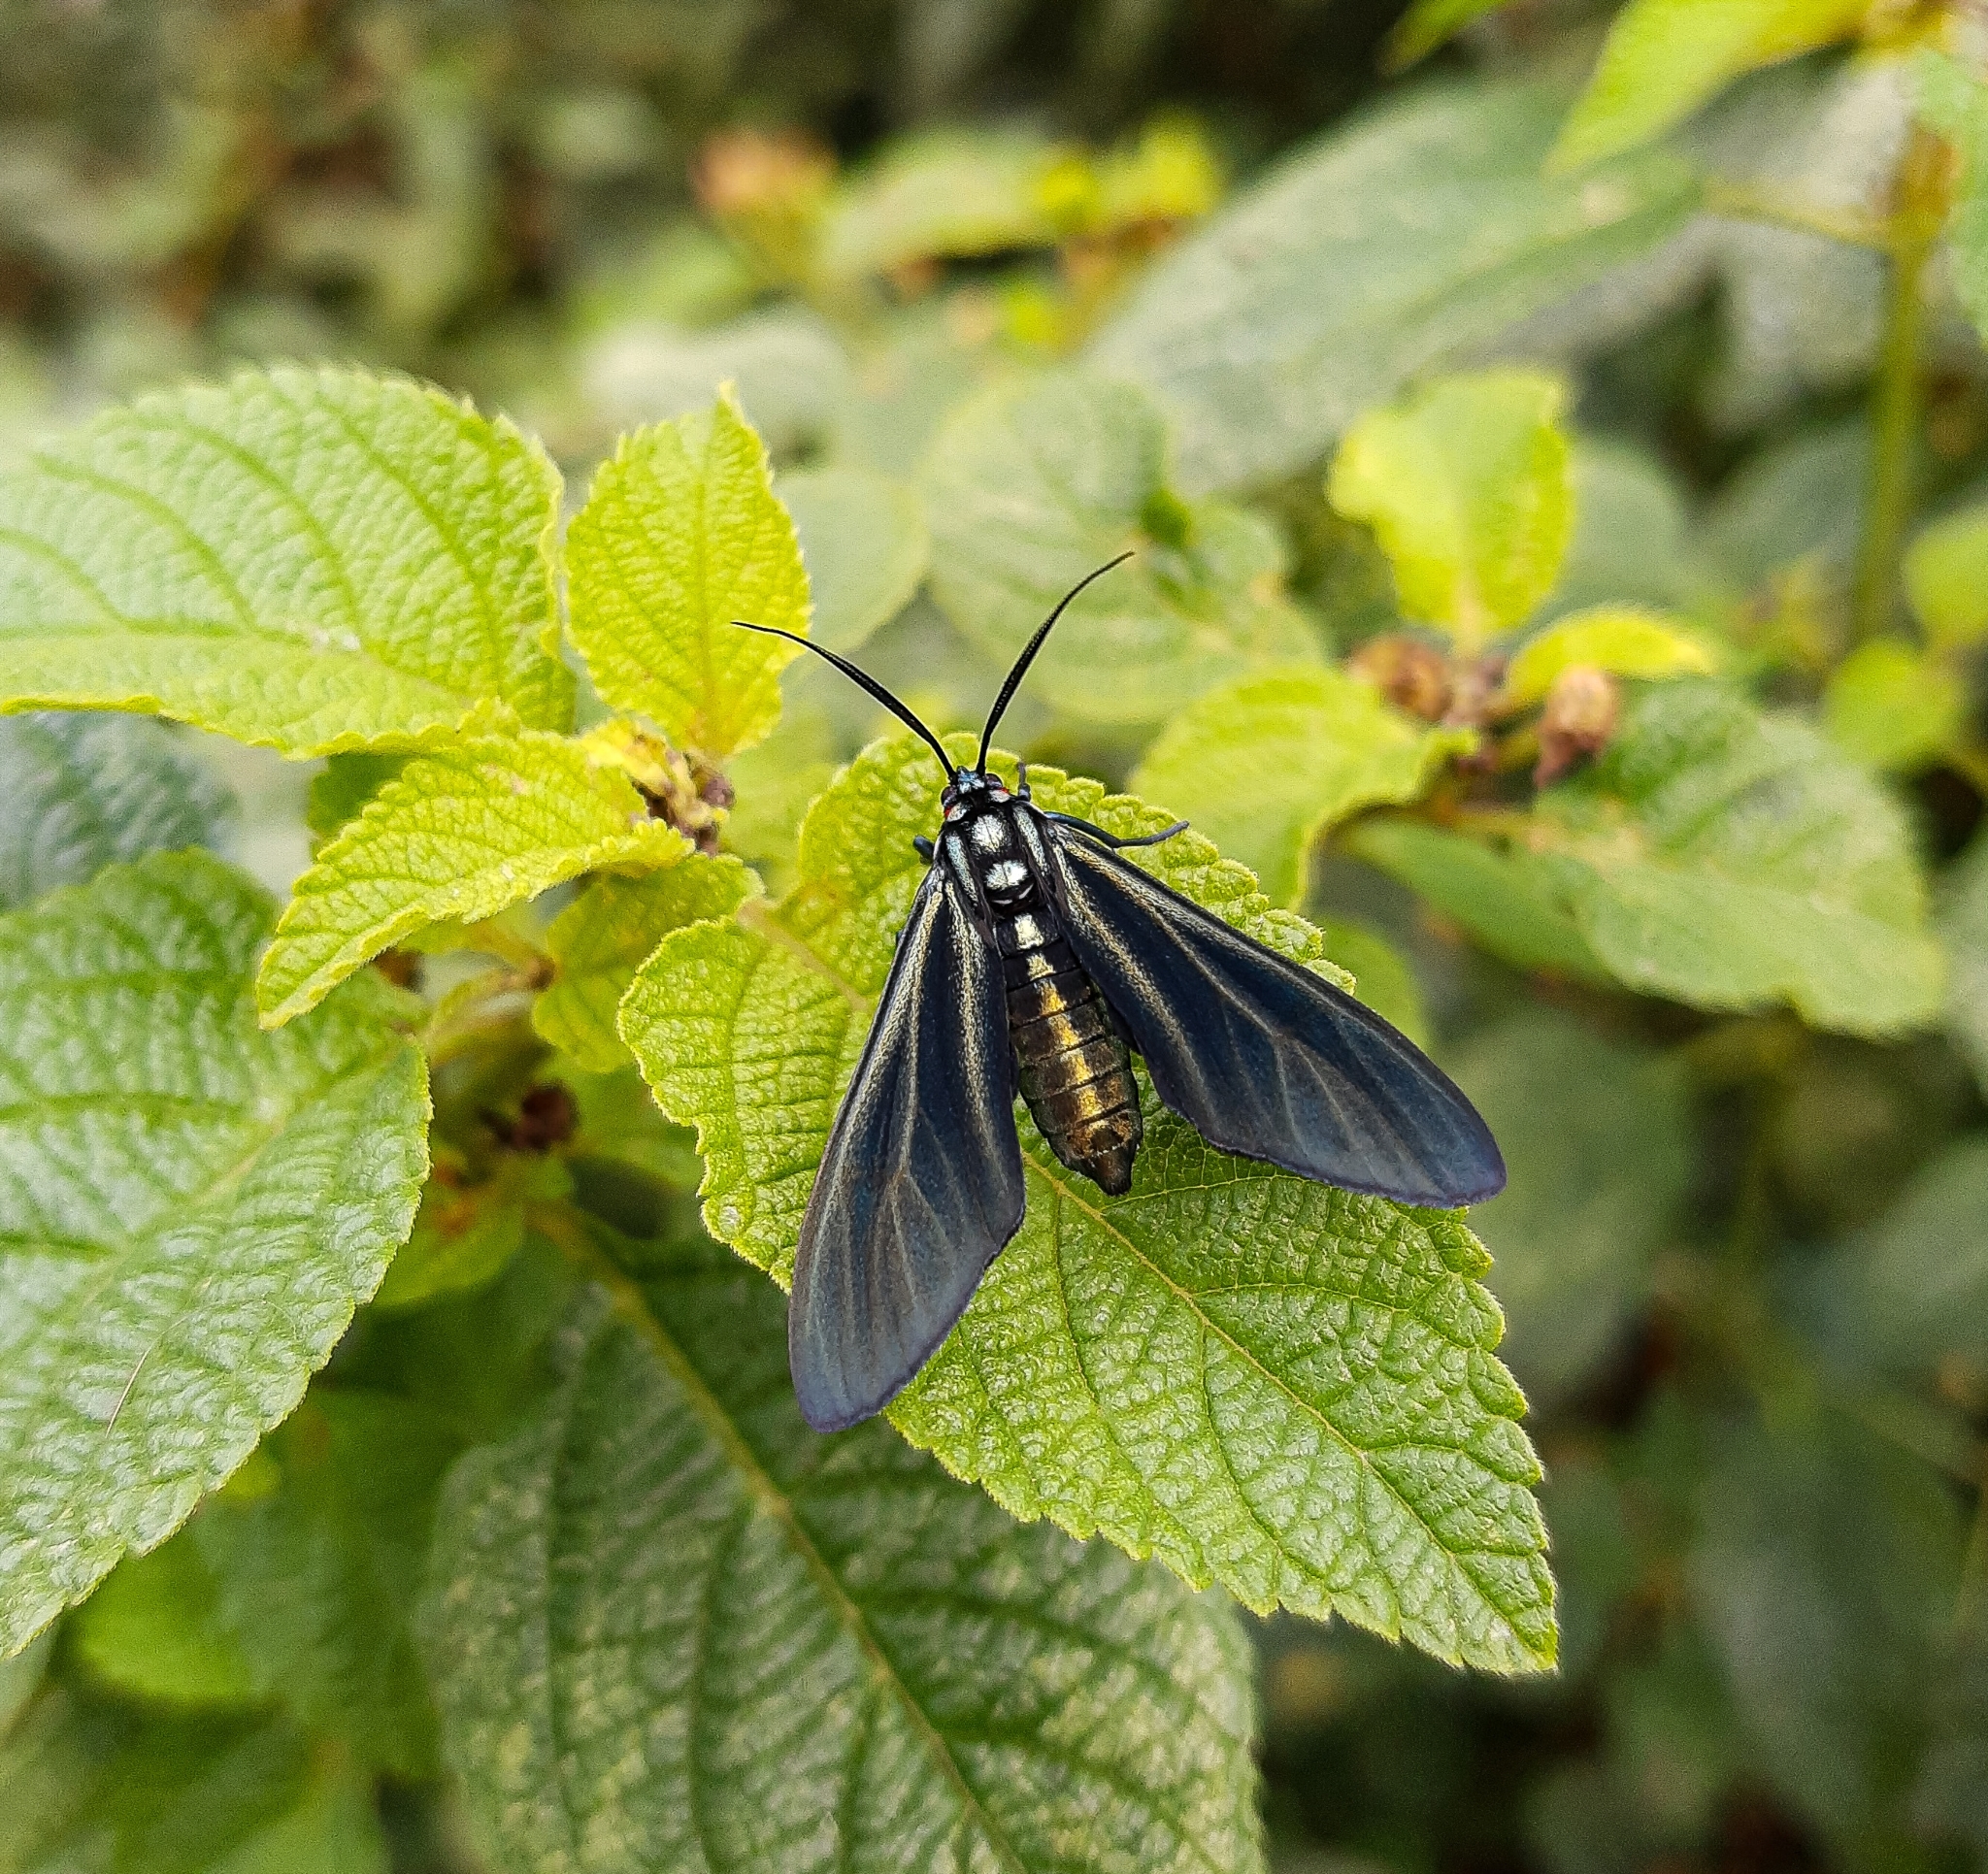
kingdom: Animalia
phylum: Arthropoda
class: Insecta
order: Lepidoptera
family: Erebidae
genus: Antichloris
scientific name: Antichloris eriphia
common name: Banana stowaway
